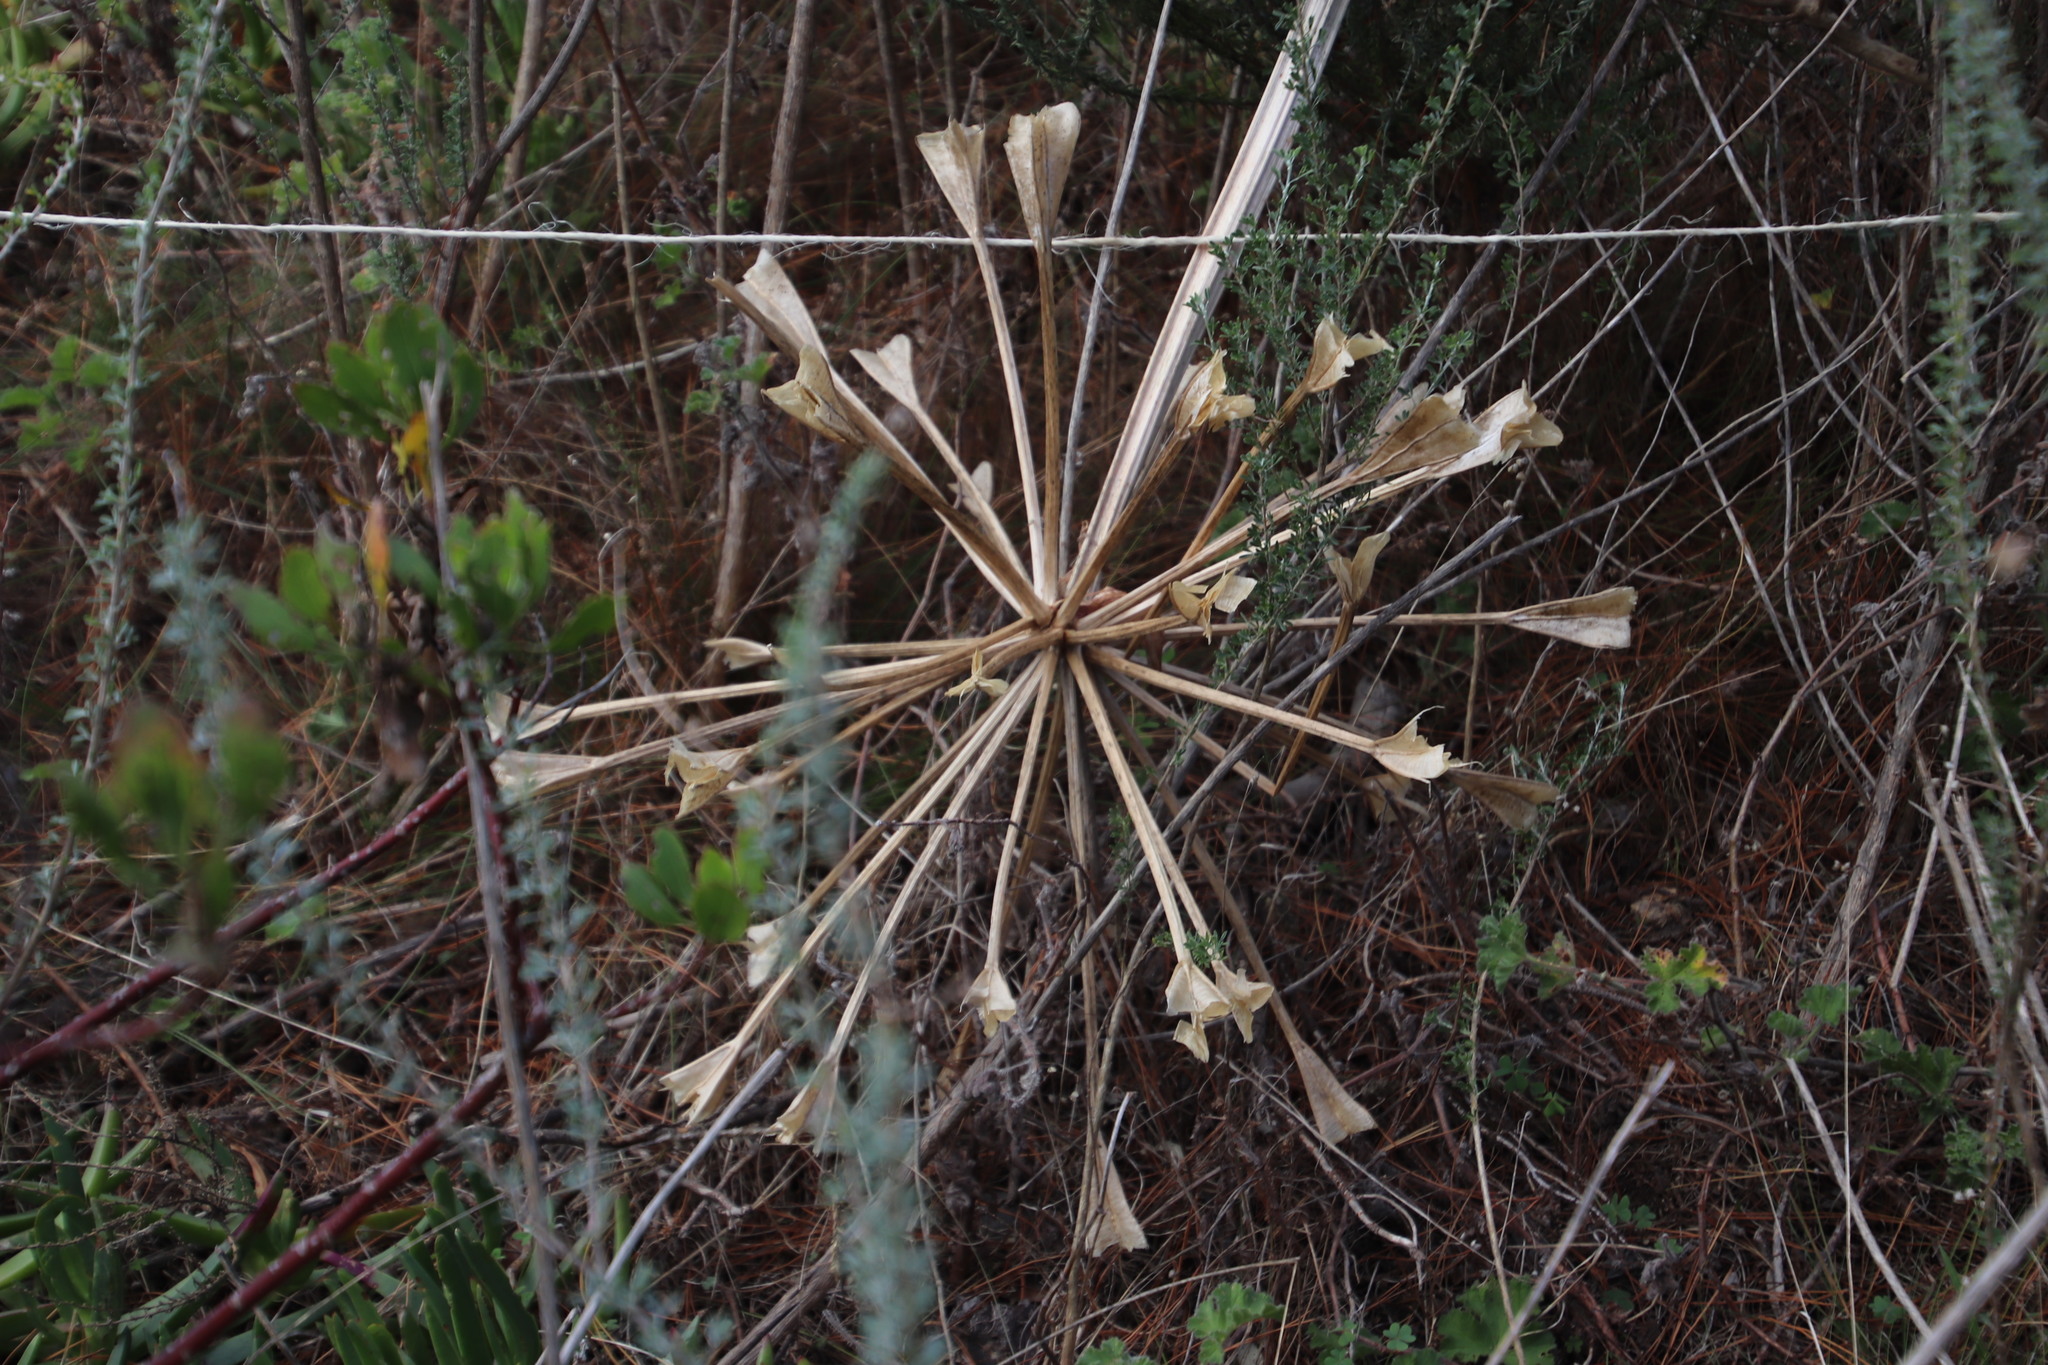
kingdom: Plantae
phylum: Tracheophyta
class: Liliopsida
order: Asparagales
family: Amaryllidaceae
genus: Brunsvigia
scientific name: Brunsvigia orientalis
